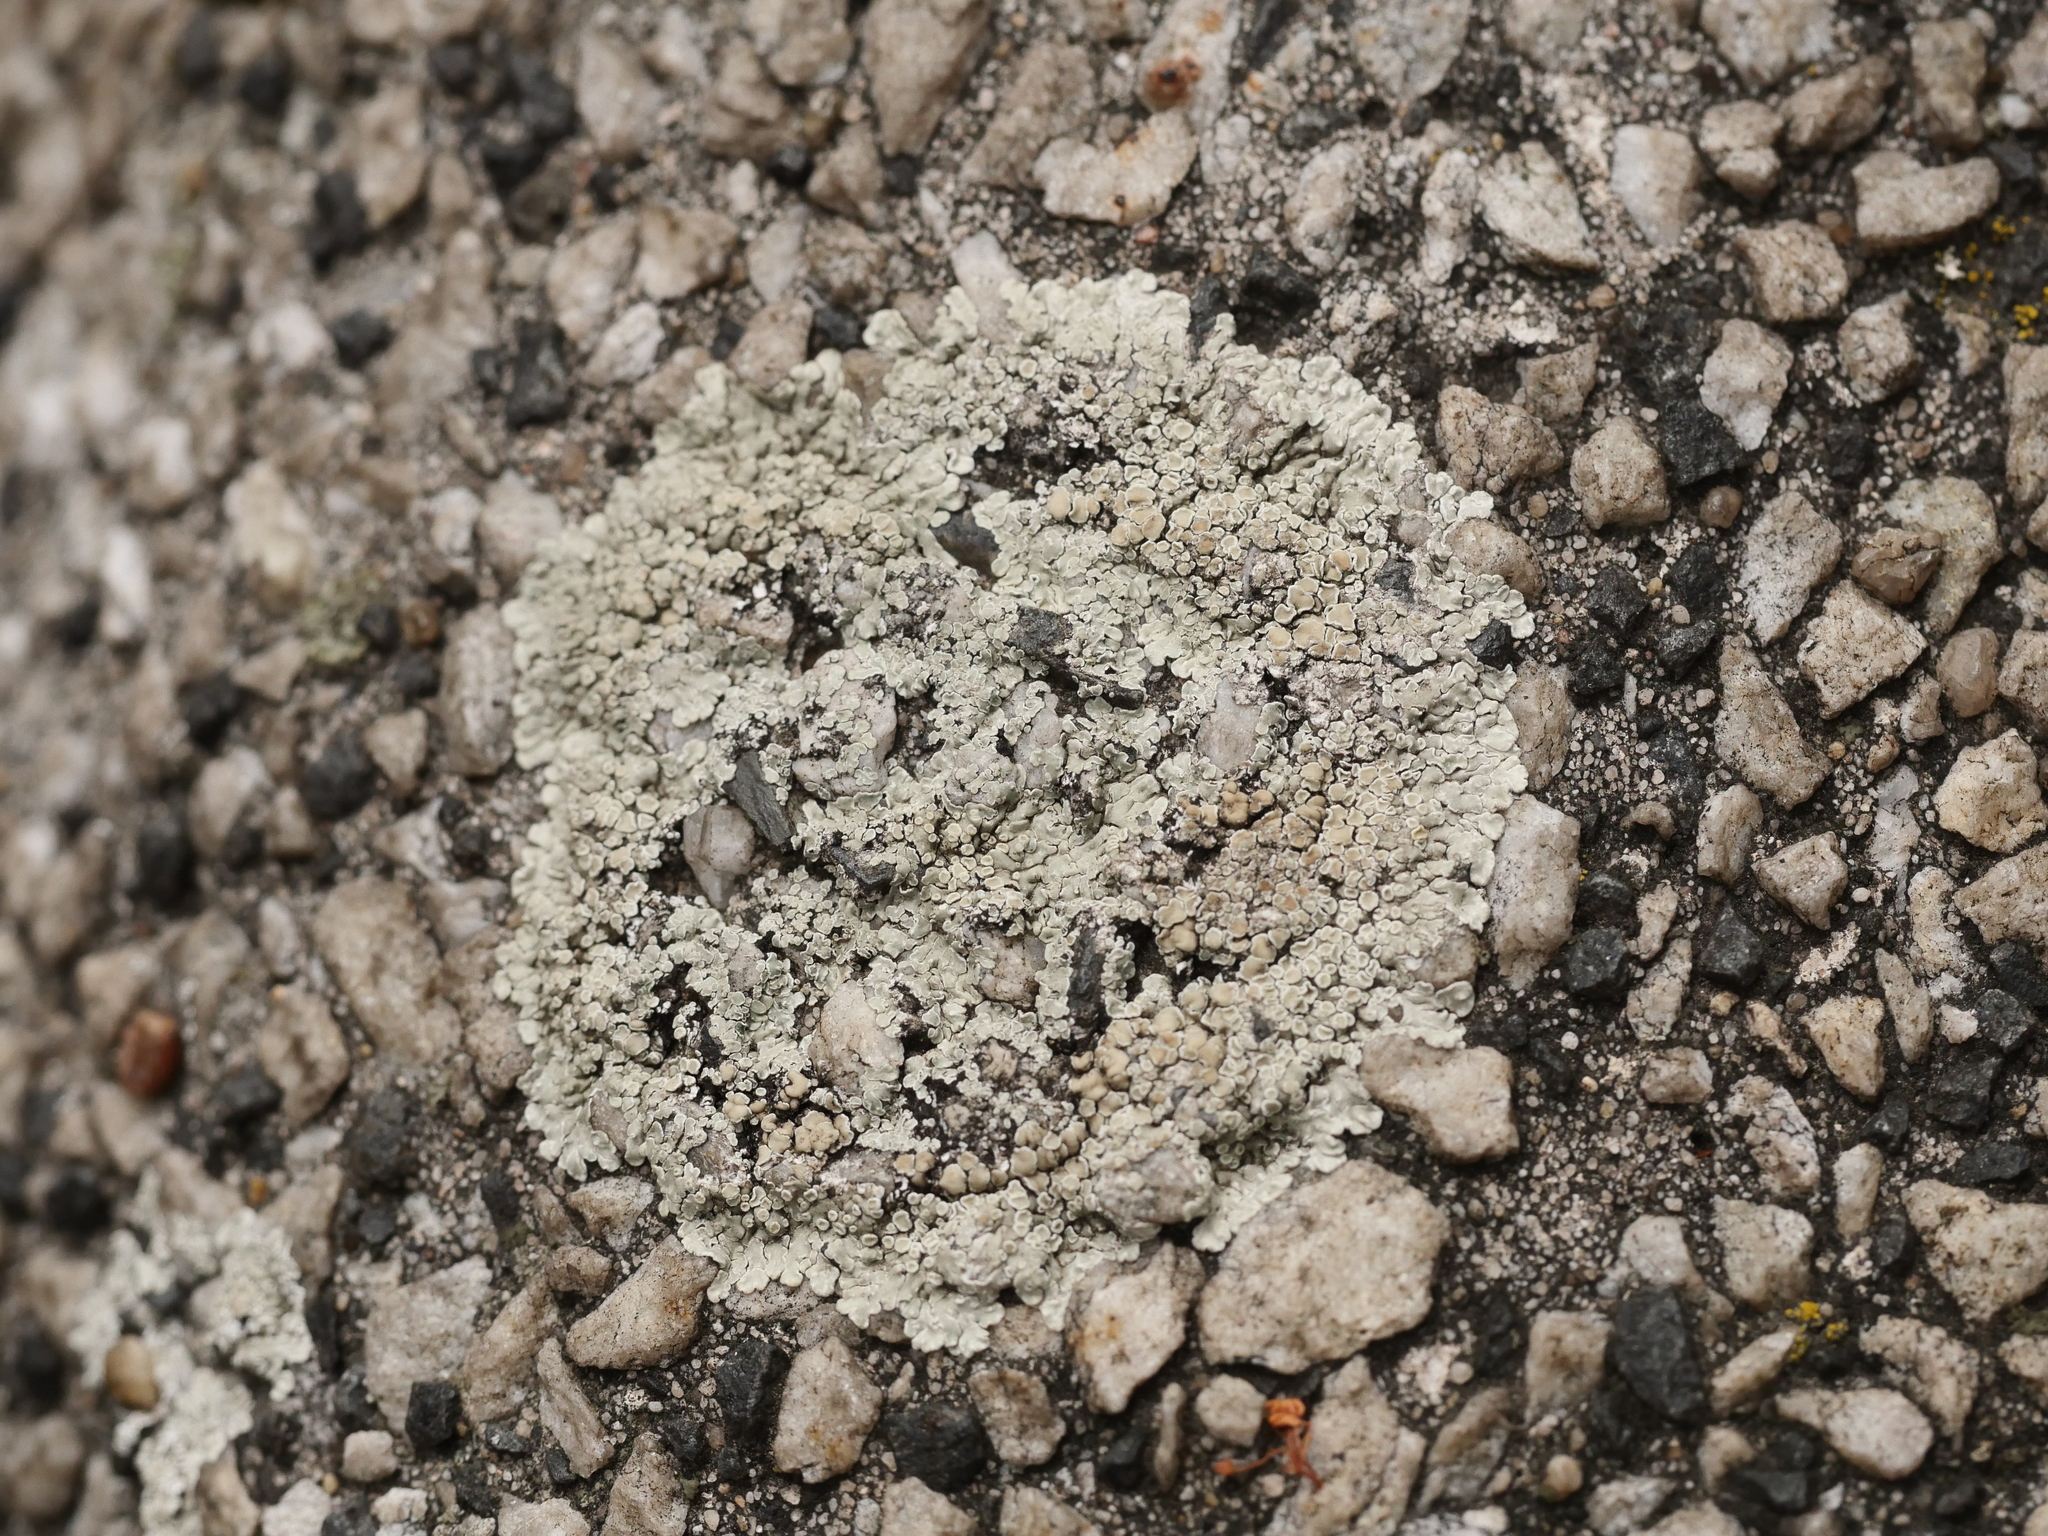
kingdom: Fungi
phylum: Ascomycota
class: Lecanoromycetes
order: Lecanorales
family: Lecanoraceae
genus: Protoparmeliopsis
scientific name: Protoparmeliopsis muralis
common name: Stonewall rim lichen
